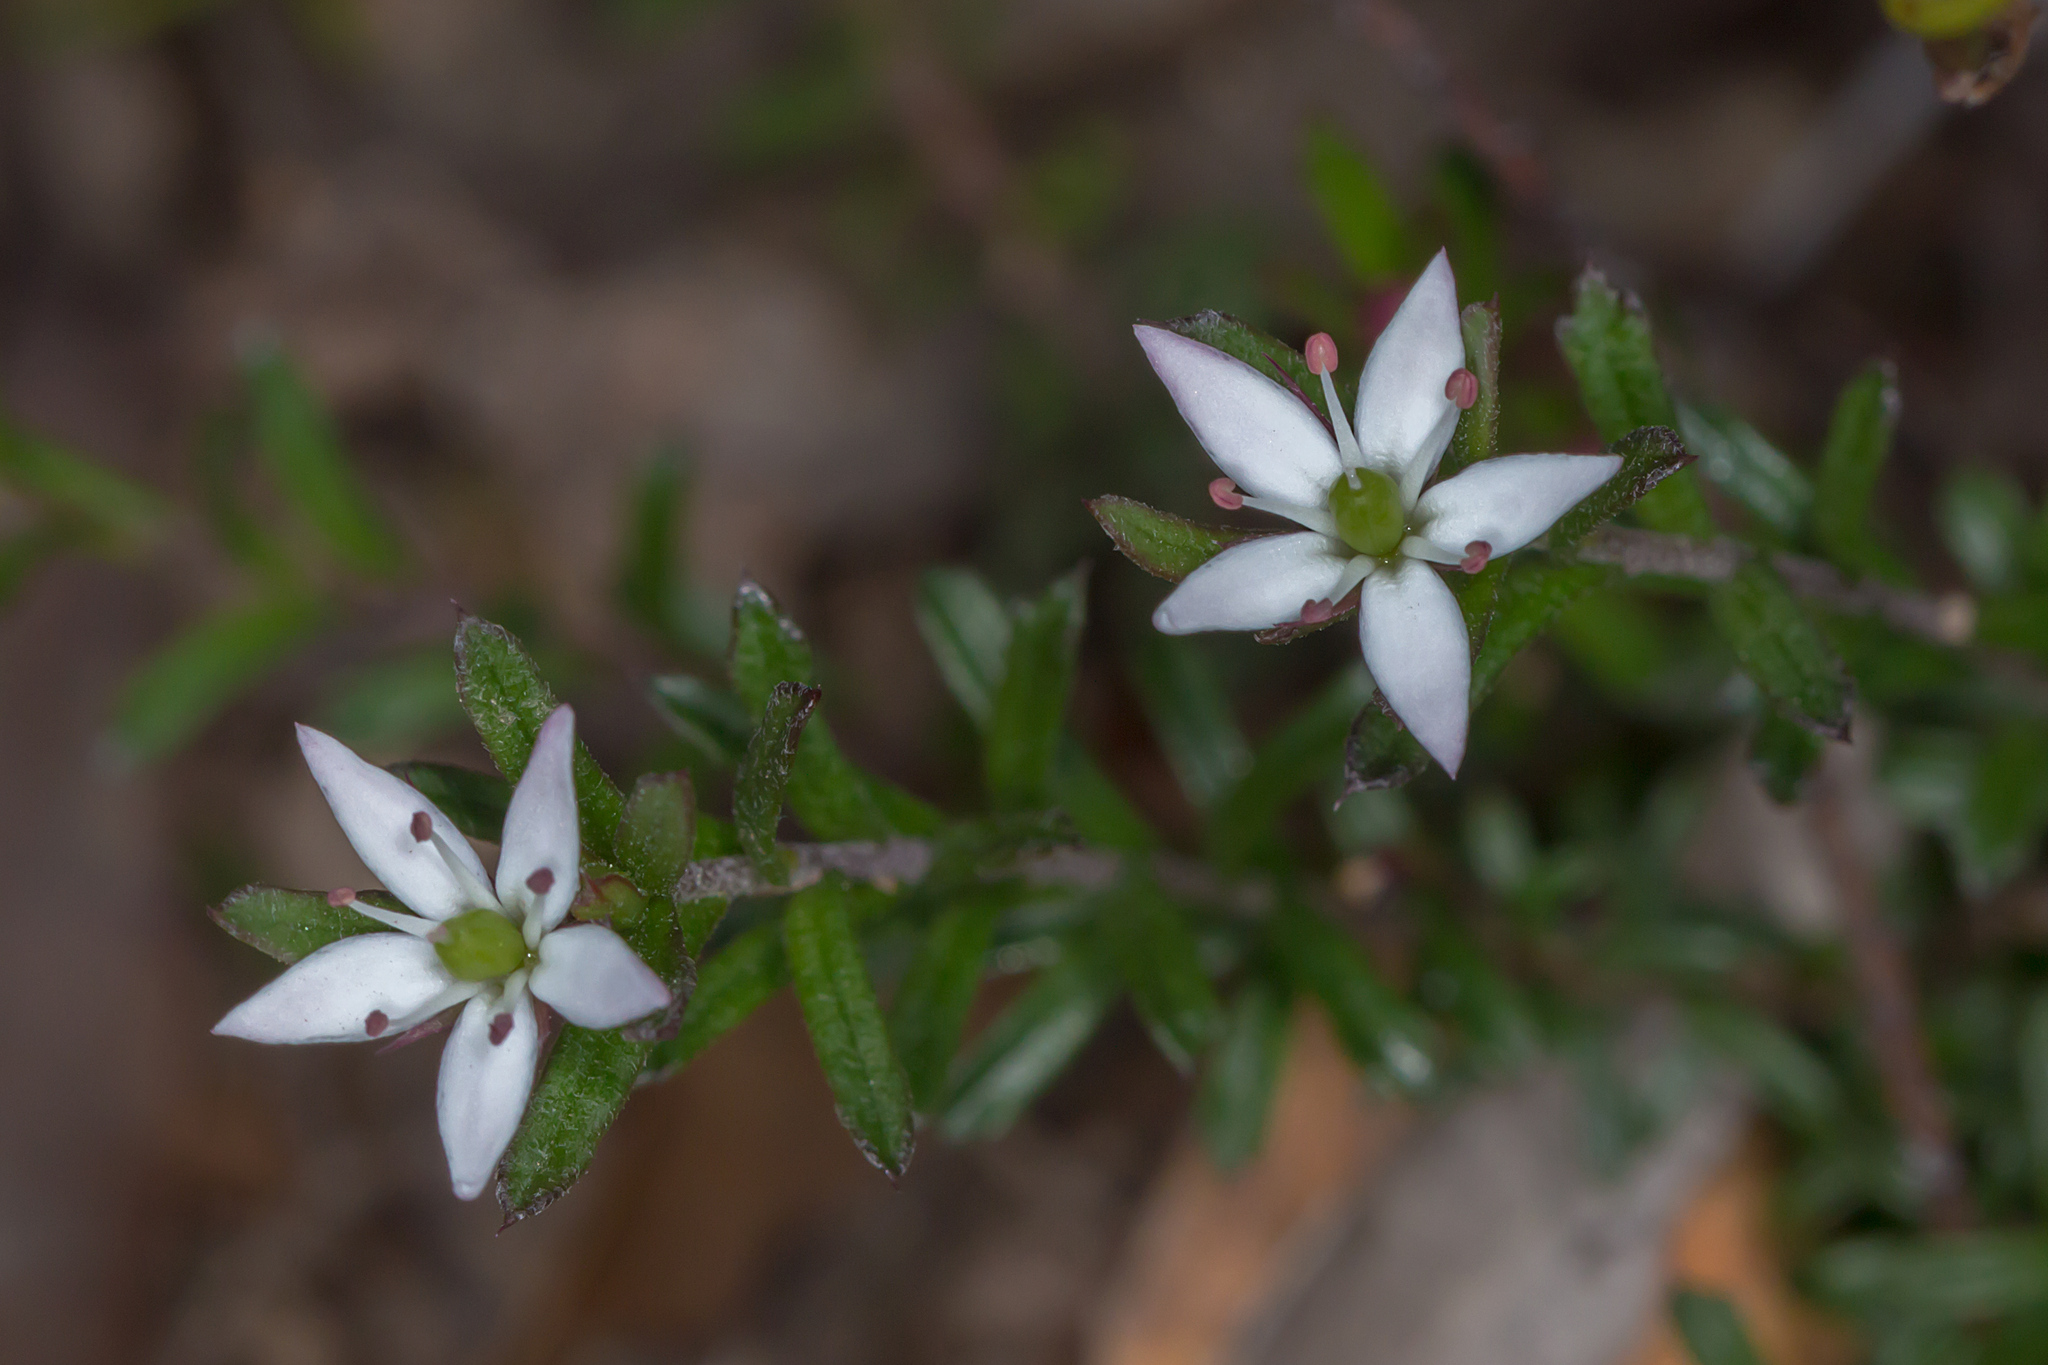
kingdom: Plantae
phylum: Tracheophyta
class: Magnoliopsida
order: Apiales
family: Pittosporaceae
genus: Rhytidosporum
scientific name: Rhytidosporum procumbens
